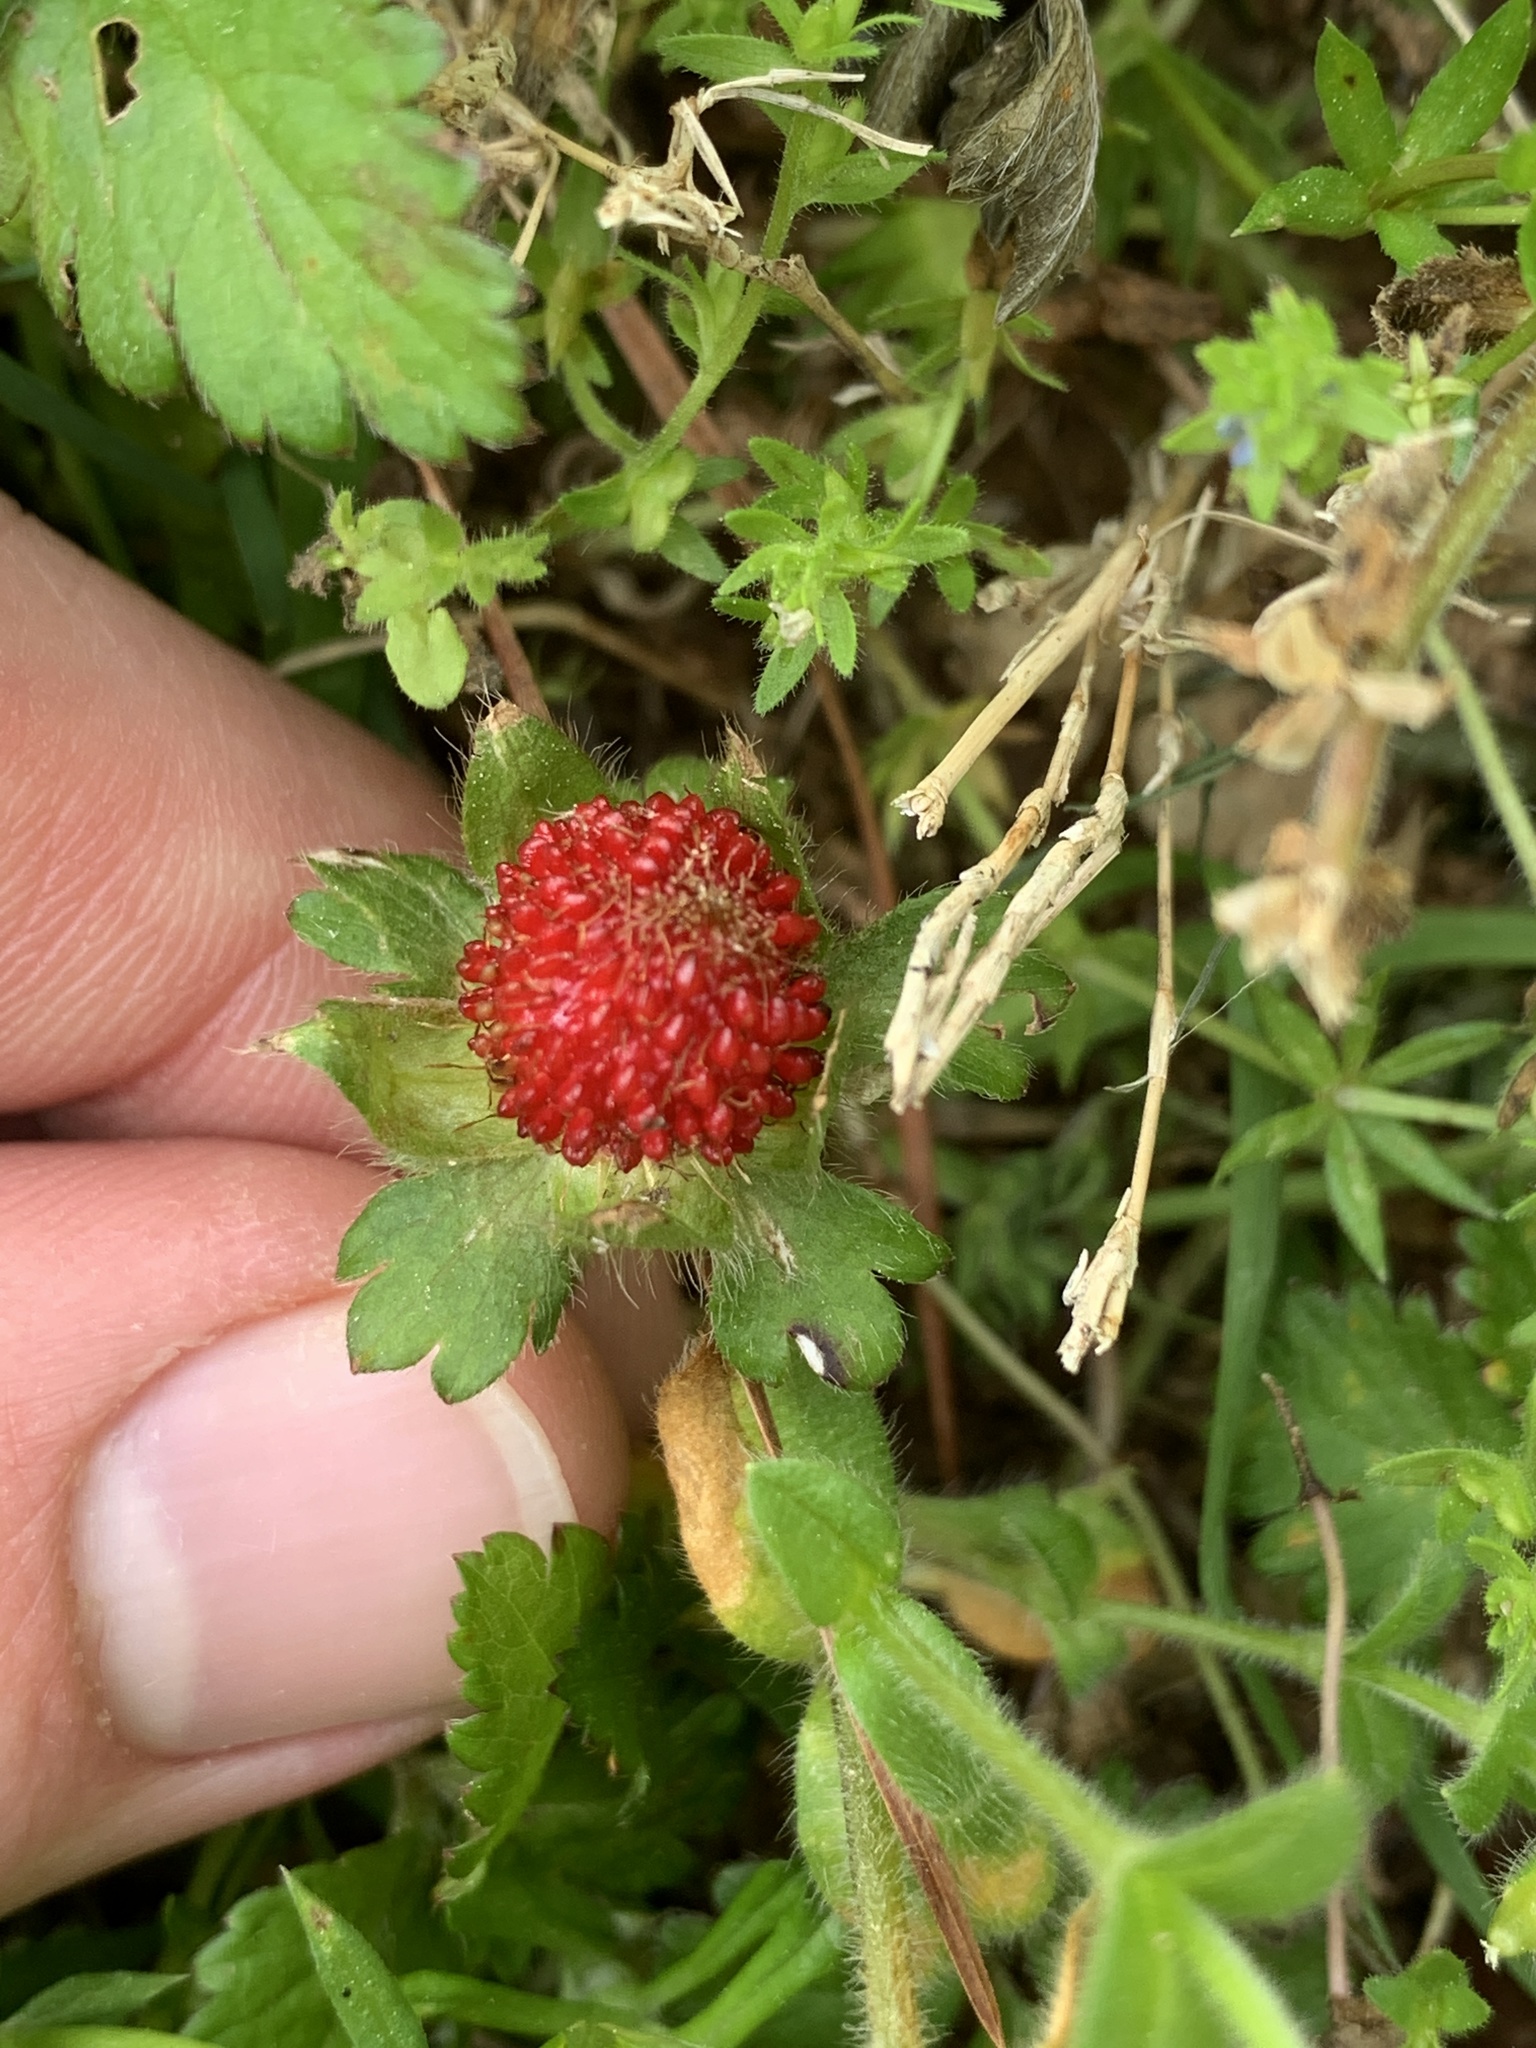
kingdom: Plantae
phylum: Tracheophyta
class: Magnoliopsida
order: Rosales
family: Rosaceae
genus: Potentilla
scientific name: Potentilla indica
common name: Yellow-flowered strawberry
